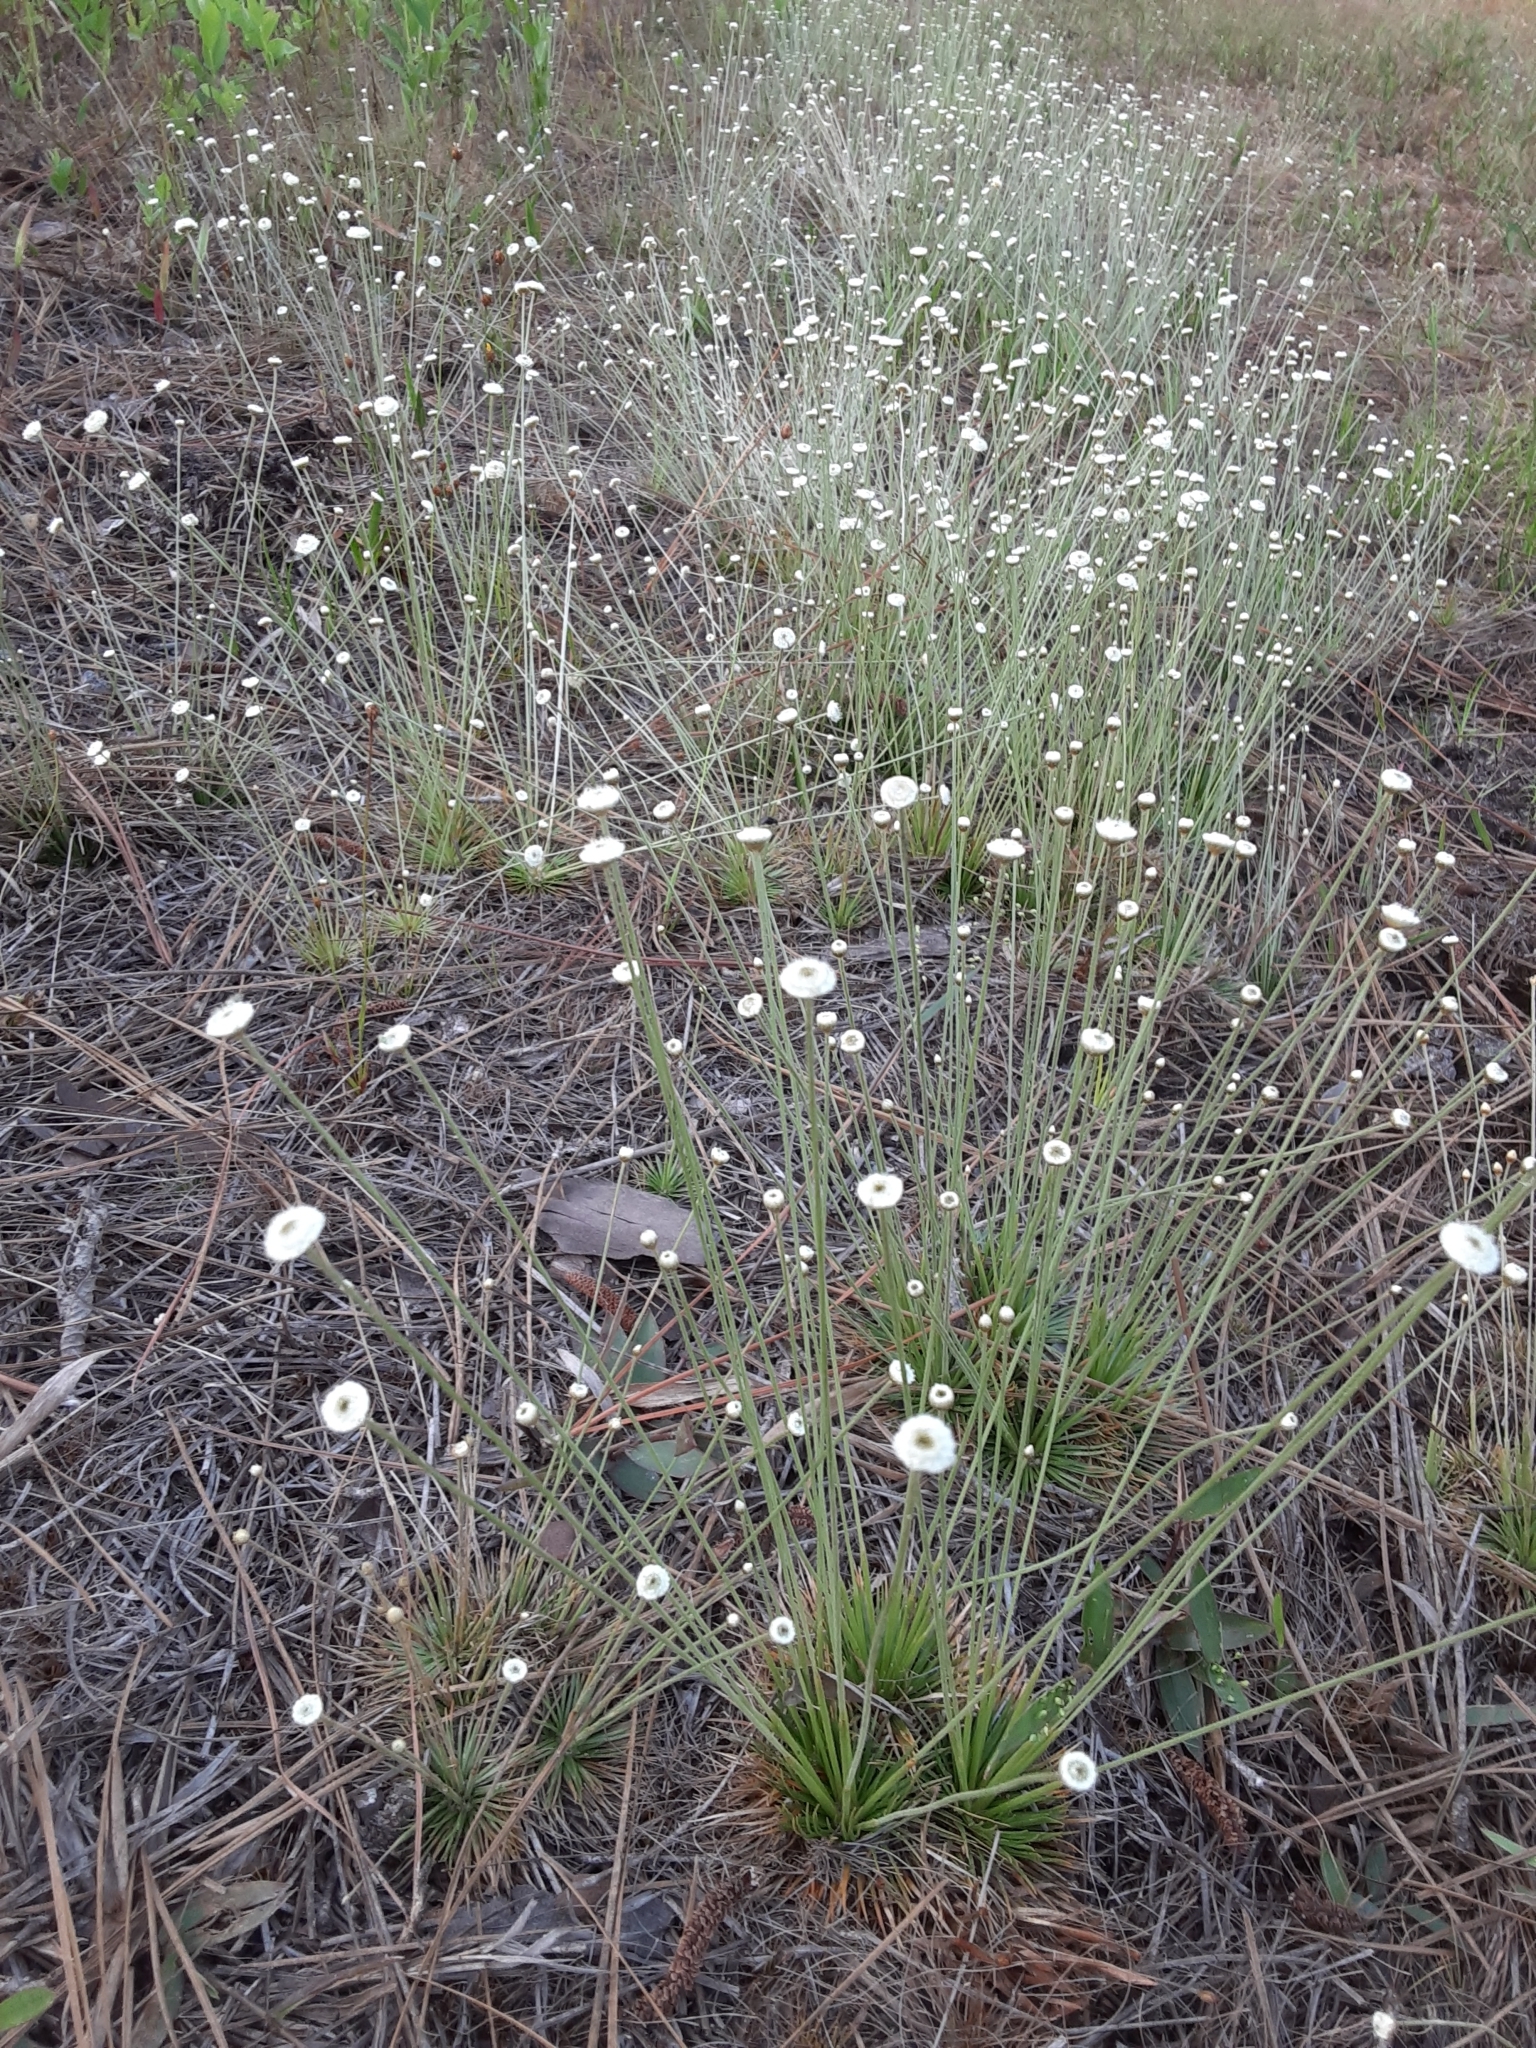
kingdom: Plantae
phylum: Tracheophyta
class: Liliopsida
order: Poales
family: Eriocaulaceae
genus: Syngonanthus
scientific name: Syngonanthus flavidulus
